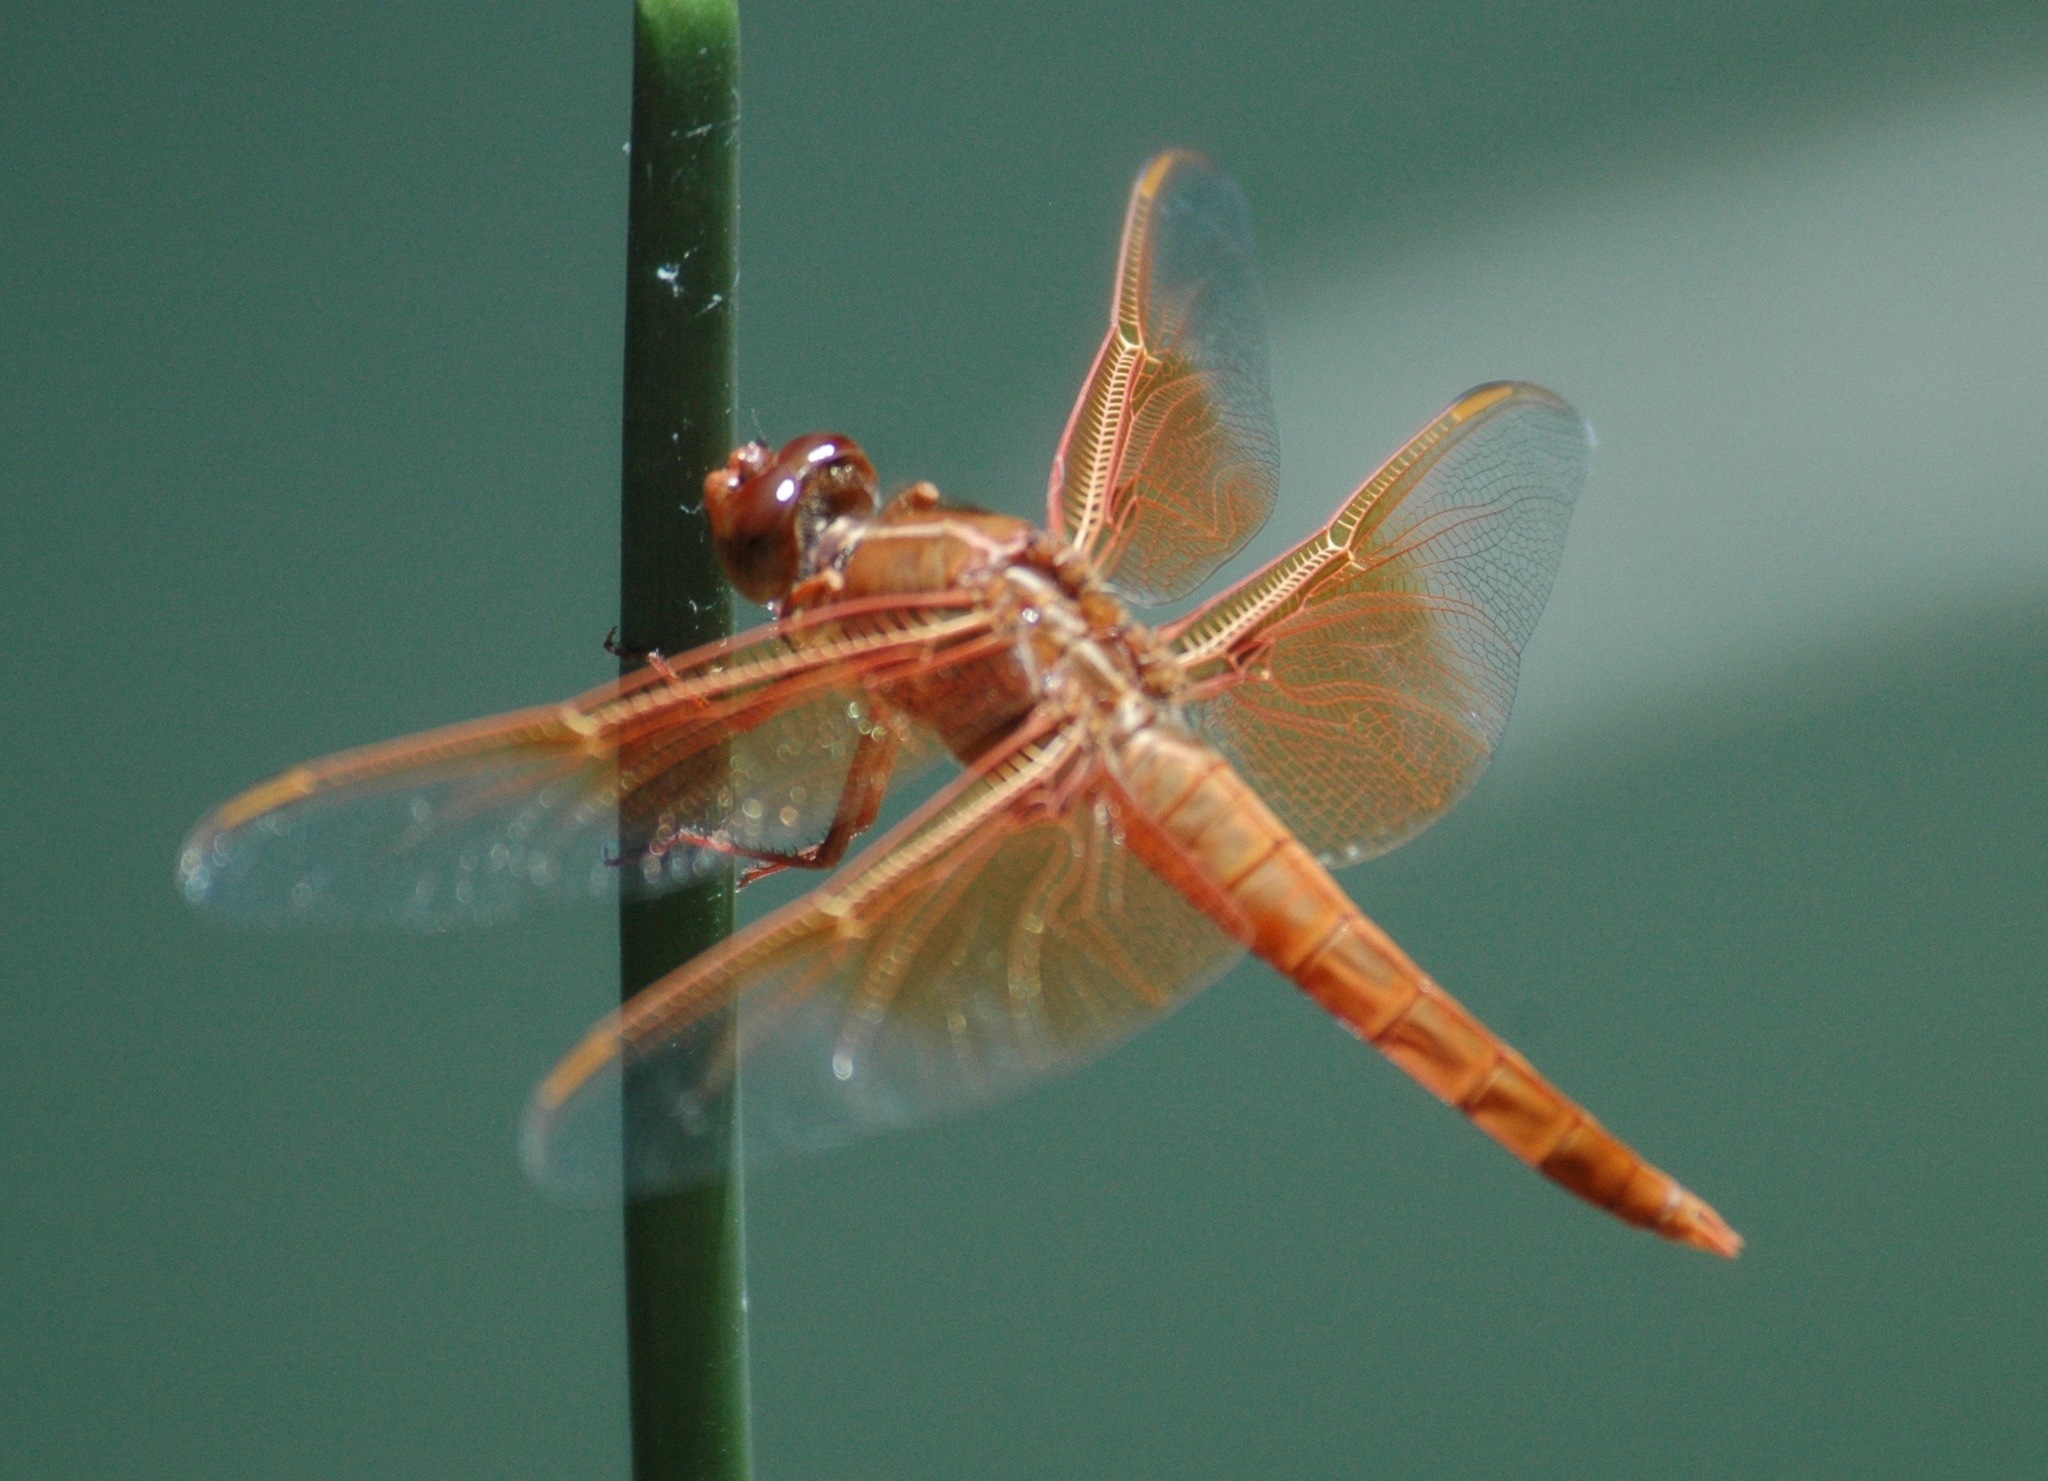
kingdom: Animalia
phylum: Arthropoda
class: Insecta
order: Odonata
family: Libellulidae
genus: Libellula
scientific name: Libellula saturata
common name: Flame skimmer
